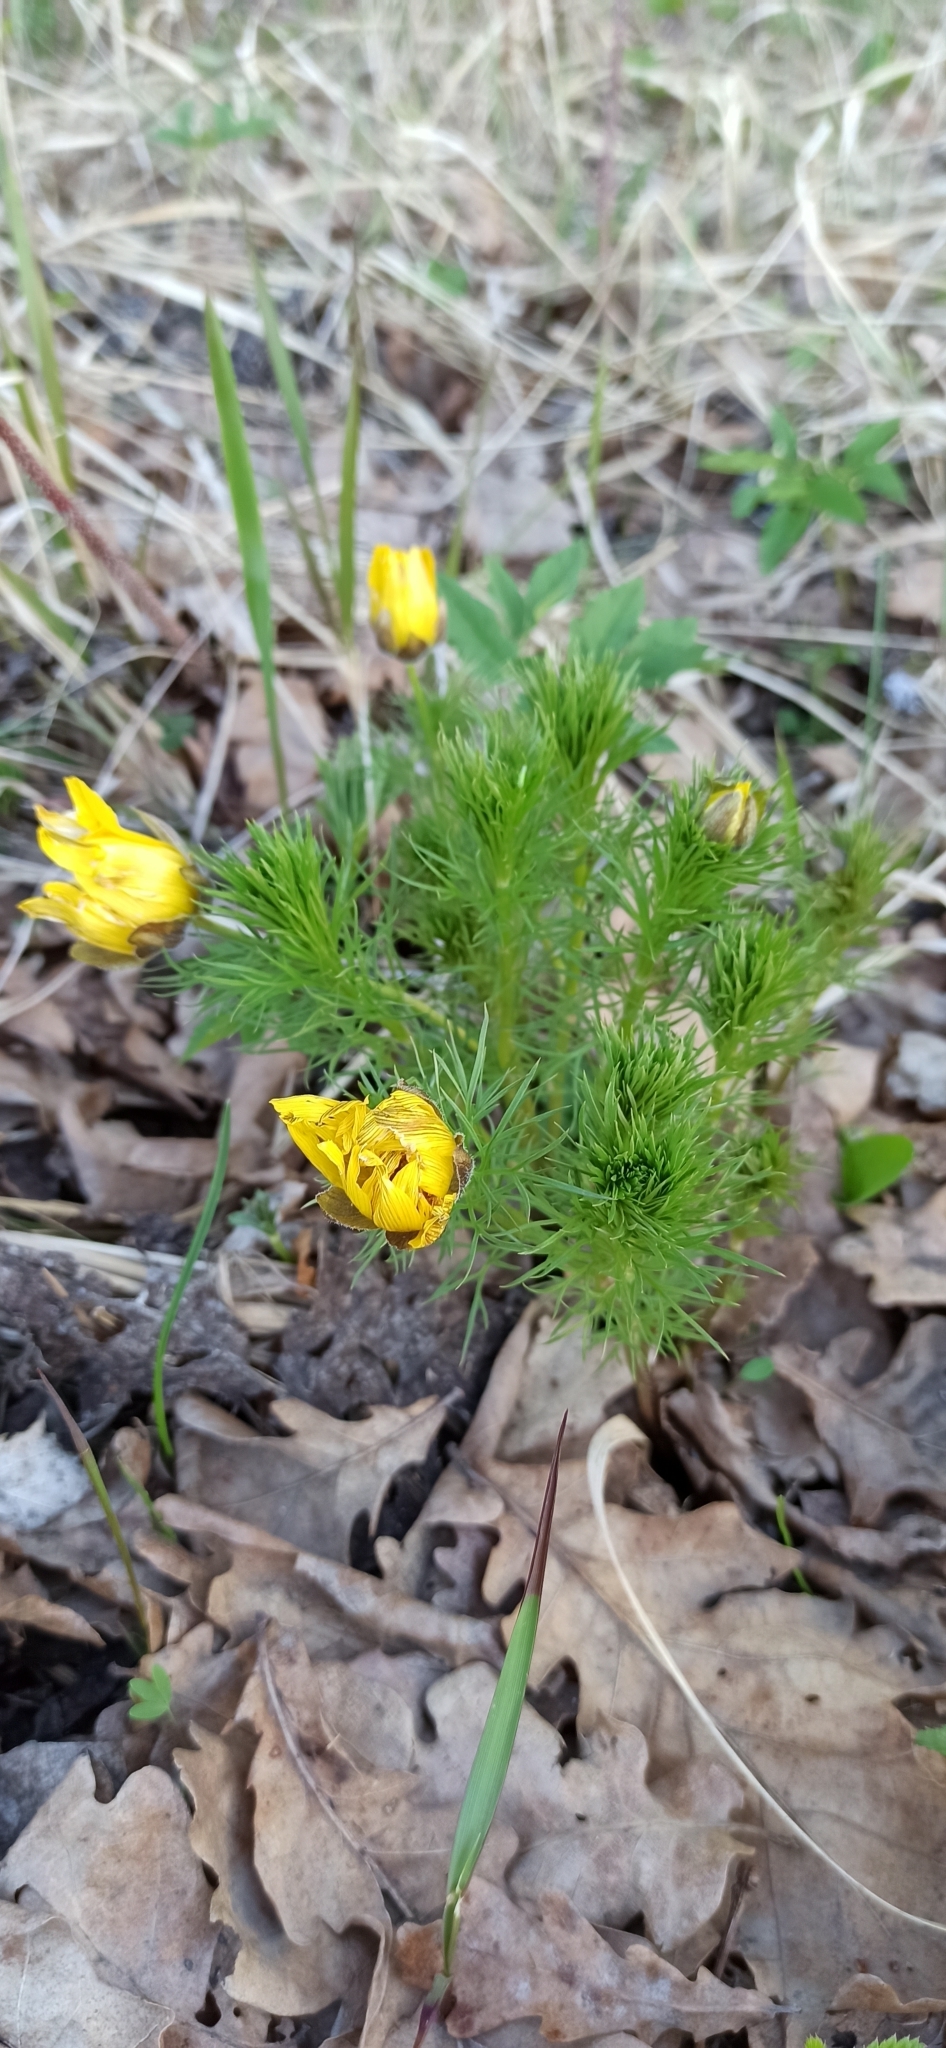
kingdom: Plantae
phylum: Tracheophyta
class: Magnoliopsida
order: Ranunculales
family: Ranunculaceae
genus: Adonis
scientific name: Adonis vernalis
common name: Yellow pheasants-eye
